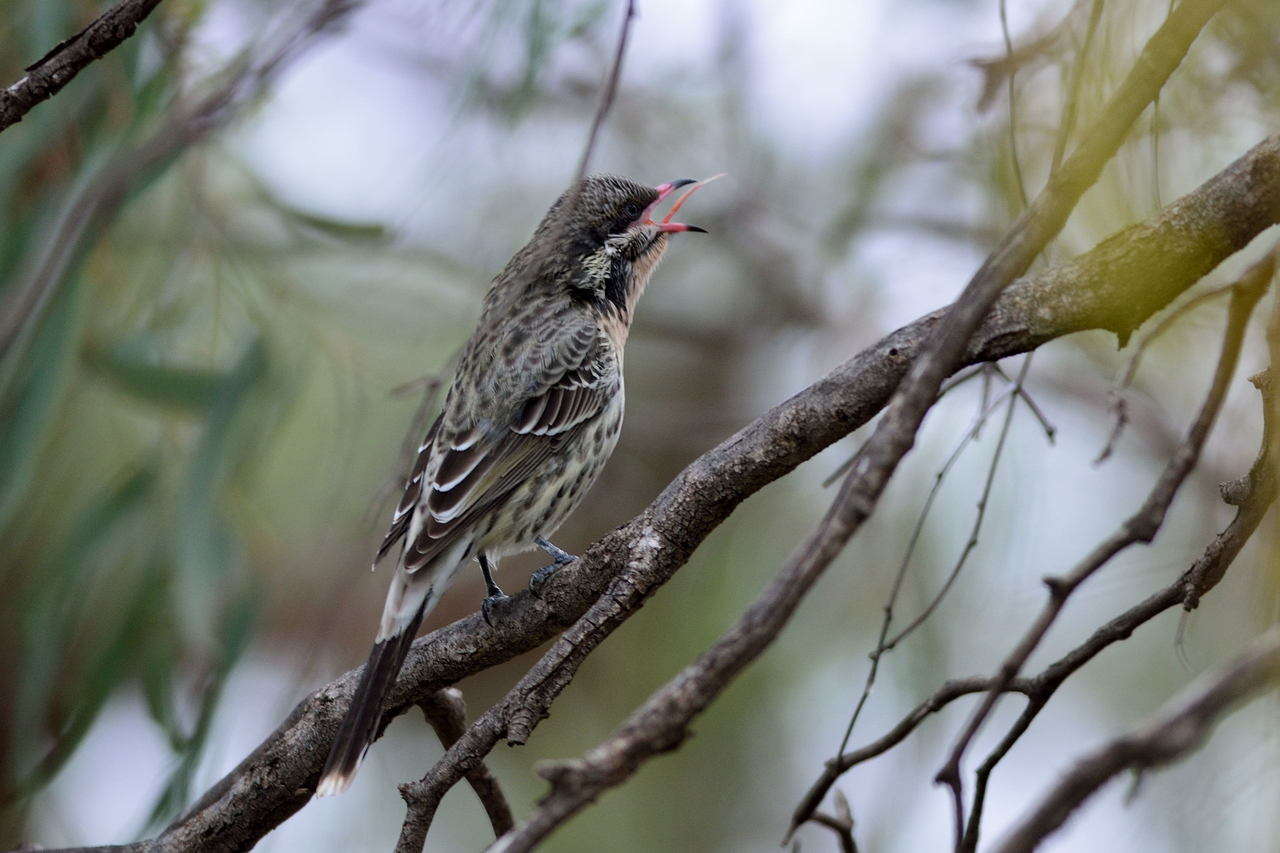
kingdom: Animalia
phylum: Chordata
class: Aves
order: Passeriformes
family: Meliphagidae
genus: Acanthagenys
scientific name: Acanthagenys rufogularis
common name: Spiny-cheeked honeyeater
